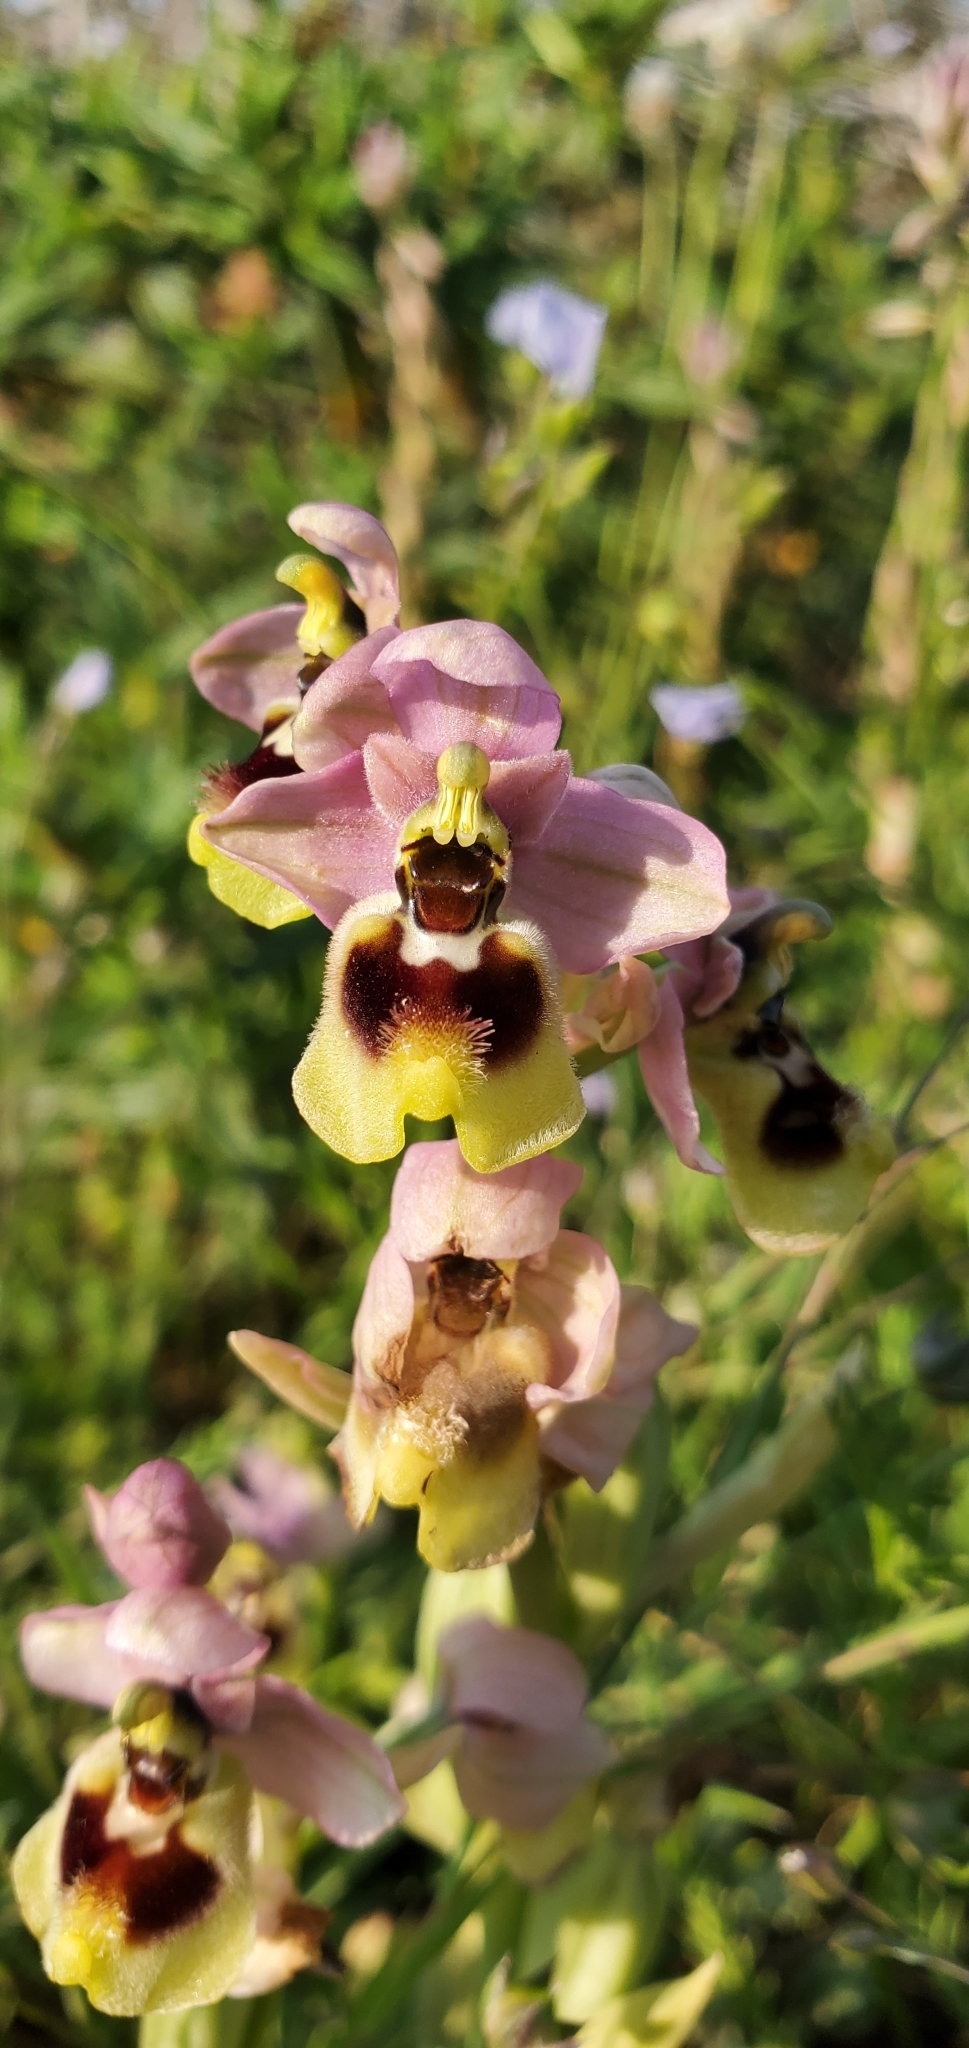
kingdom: Plantae
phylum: Tracheophyta
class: Liliopsida
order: Asparagales
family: Orchidaceae
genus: Ophrys
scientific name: Ophrys tenthredinifera
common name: Sawfly orchid
